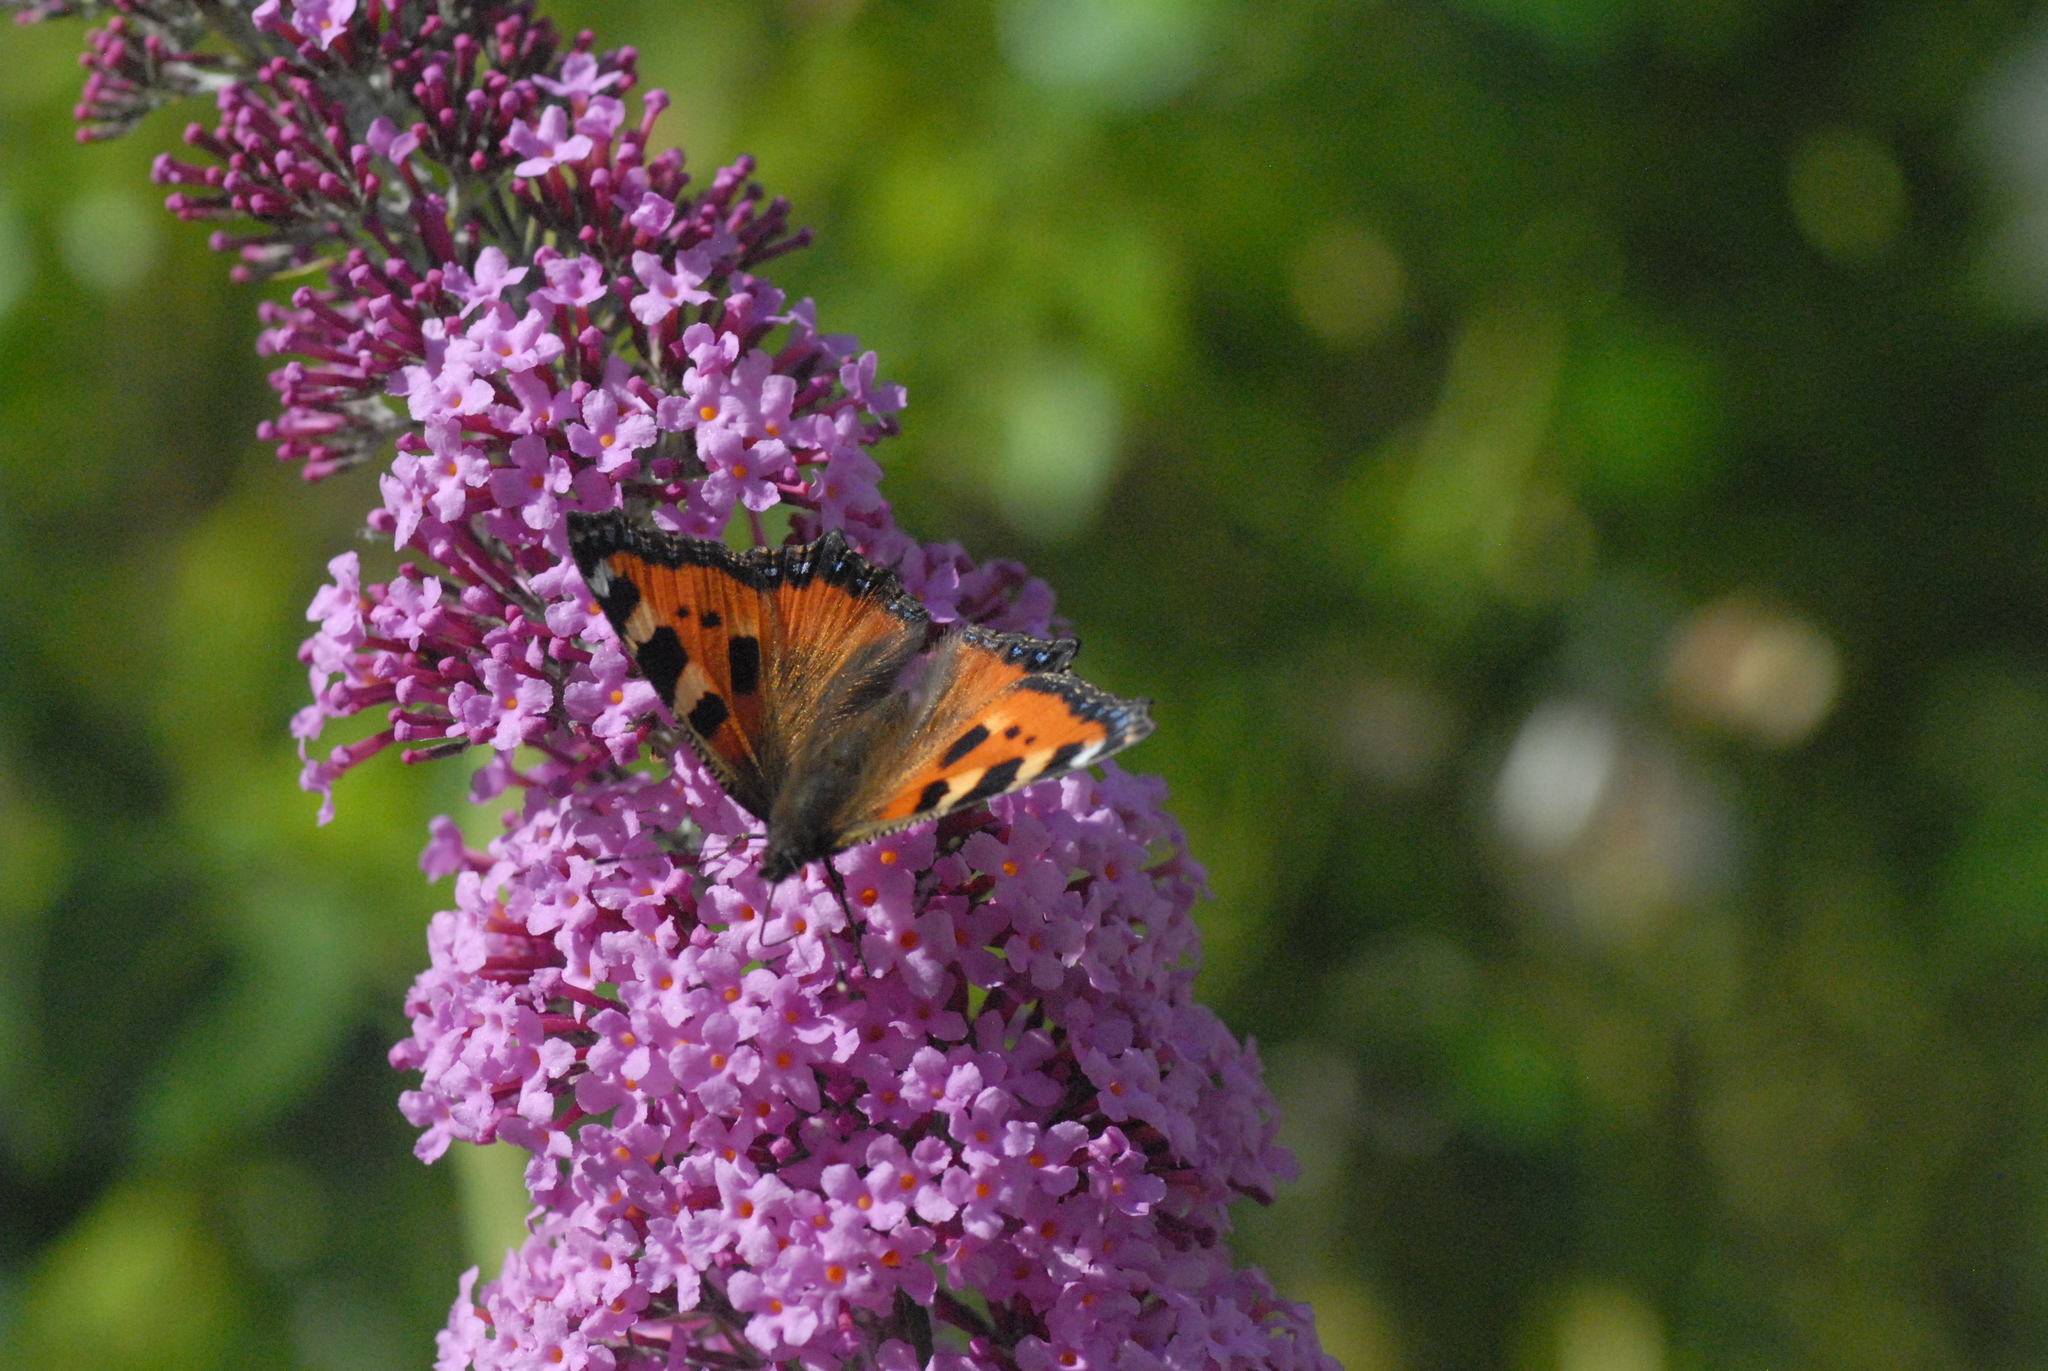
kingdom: Animalia
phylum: Arthropoda
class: Insecta
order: Lepidoptera
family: Nymphalidae
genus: Aglais
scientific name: Aglais urticae
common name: Small tortoiseshell
